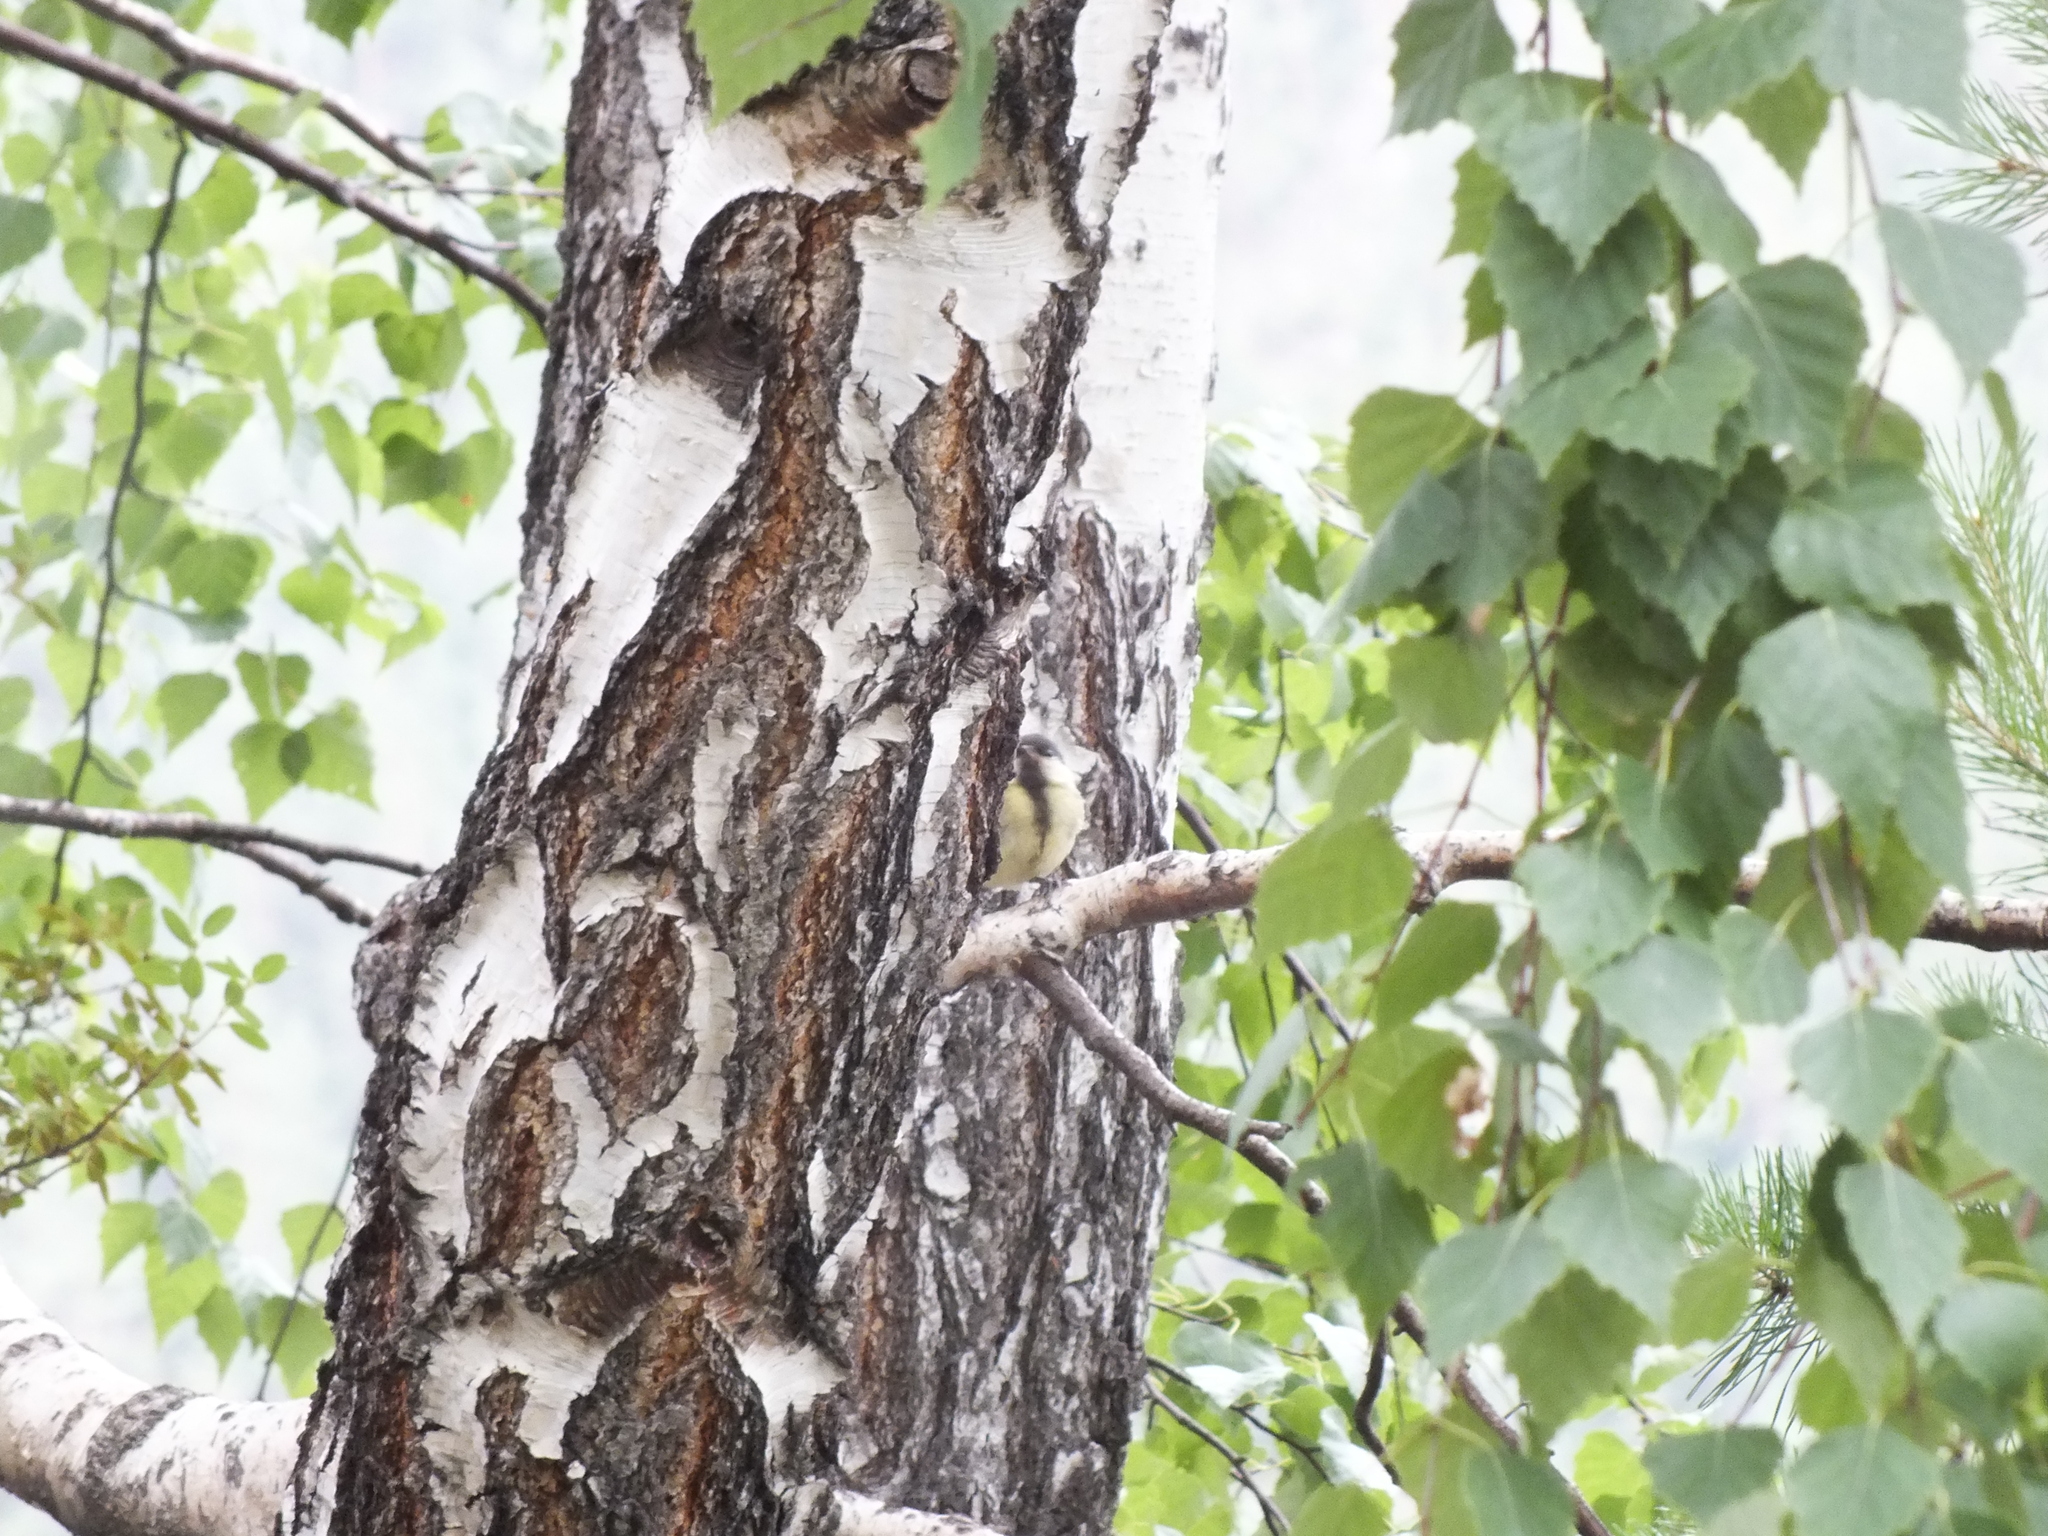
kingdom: Animalia
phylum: Chordata
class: Aves
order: Passeriformes
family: Paridae
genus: Parus
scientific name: Parus major
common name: Great tit
